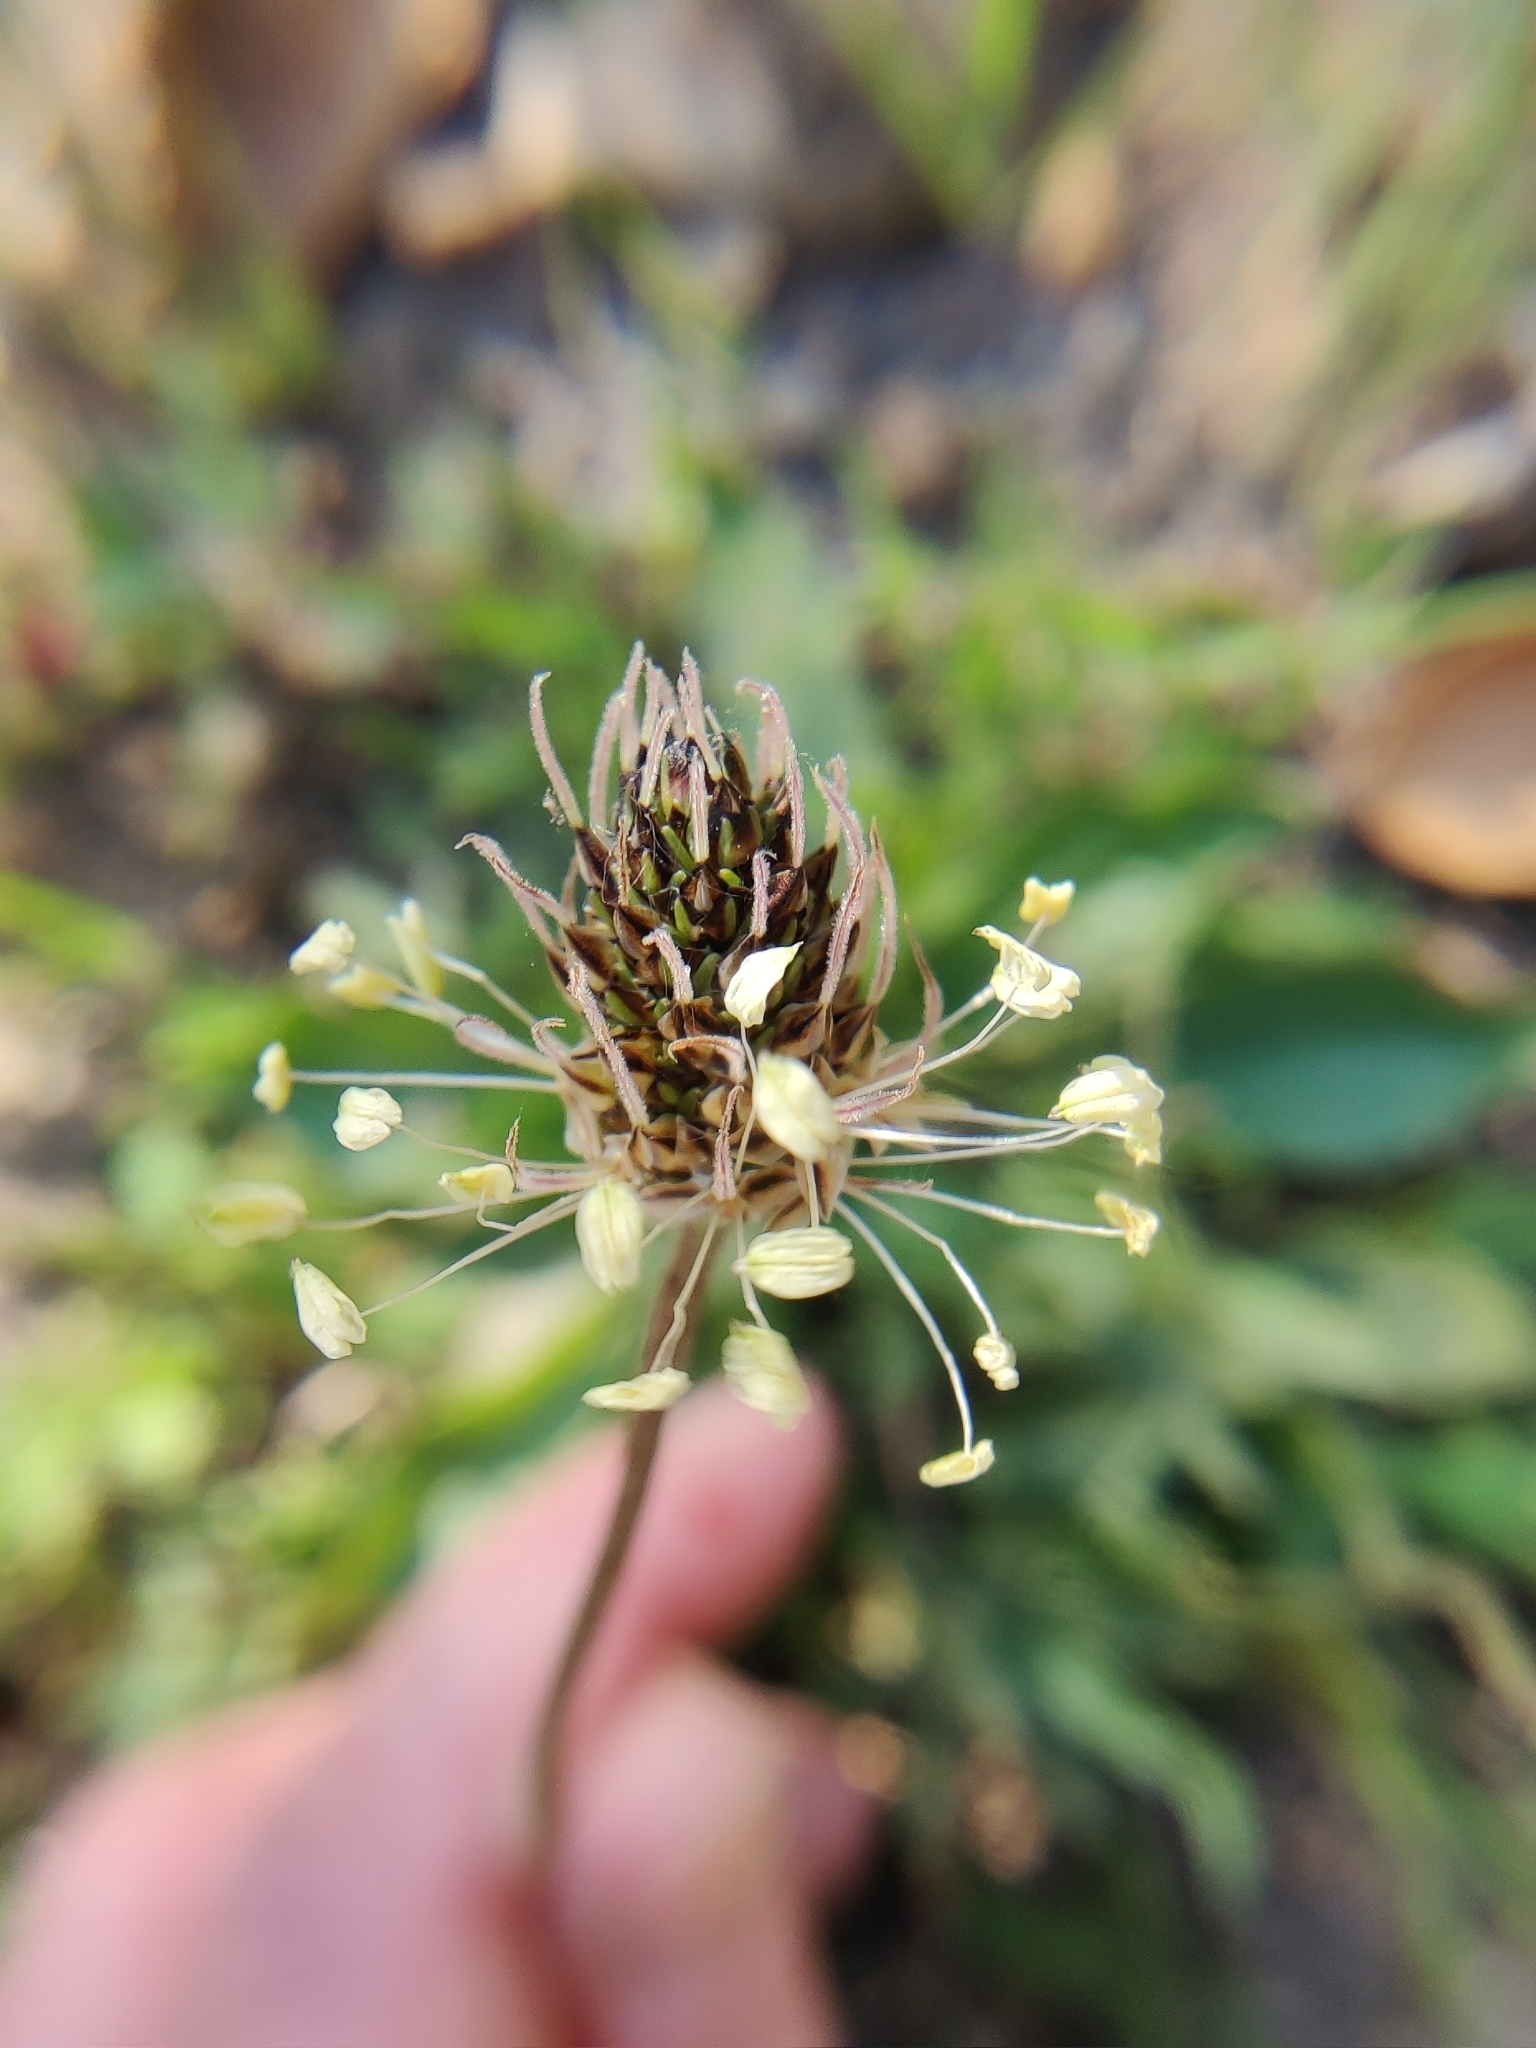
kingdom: Plantae
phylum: Tracheophyta
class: Magnoliopsida
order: Lamiales
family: Plantaginaceae
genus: Plantago
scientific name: Plantago lanceolata
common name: Ribwort plantain
